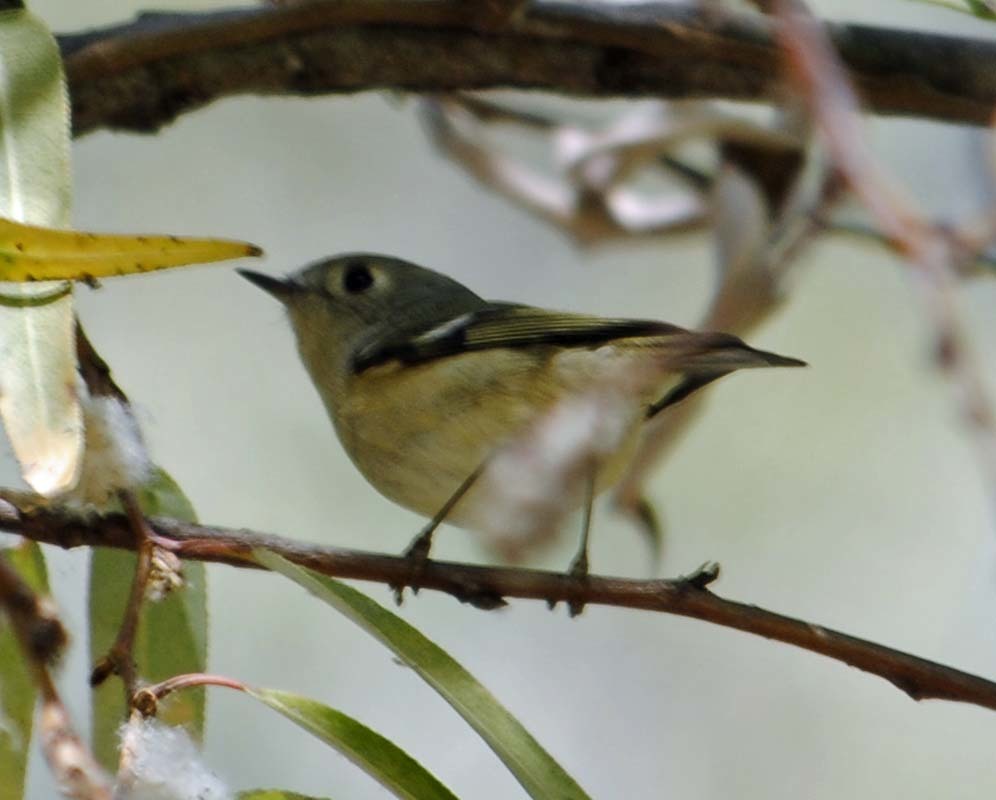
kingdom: Animalia
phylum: Chordata
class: Aves
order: Passeriformes
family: Regulidae
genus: Regulus
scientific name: Regulus calendula
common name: Ruby-crowned kinglet
